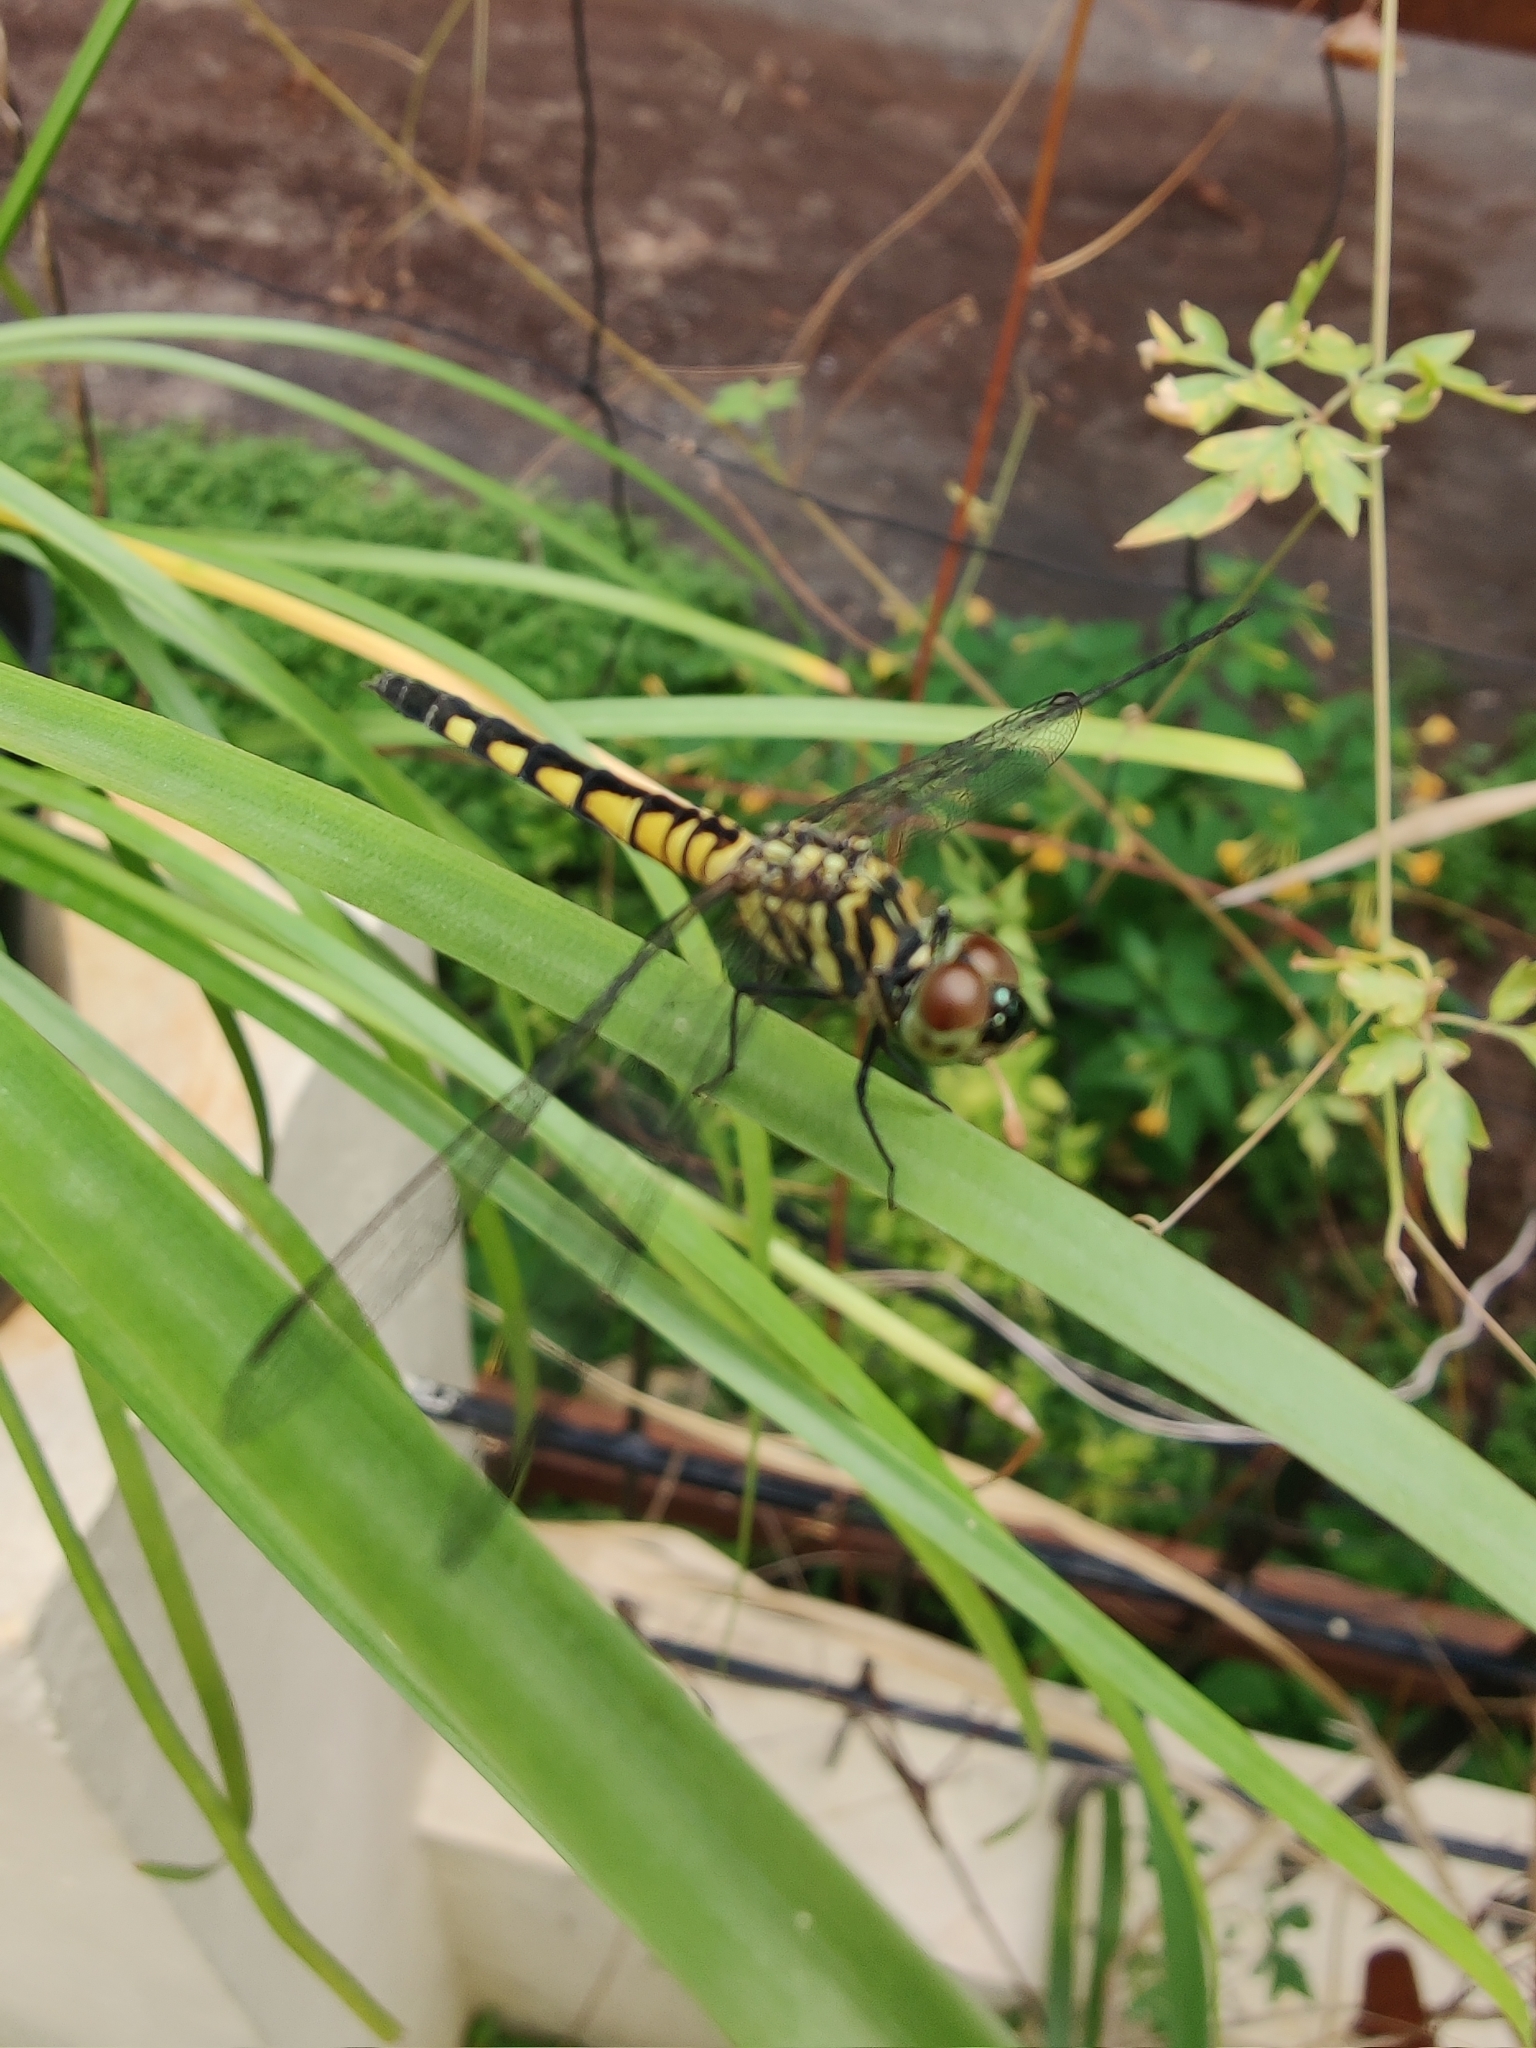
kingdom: Animalia
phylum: Arthropoda
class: Insecta
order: Odonata
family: Libellulidae
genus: Brachydiplax
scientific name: Brachydiplax sobrina
